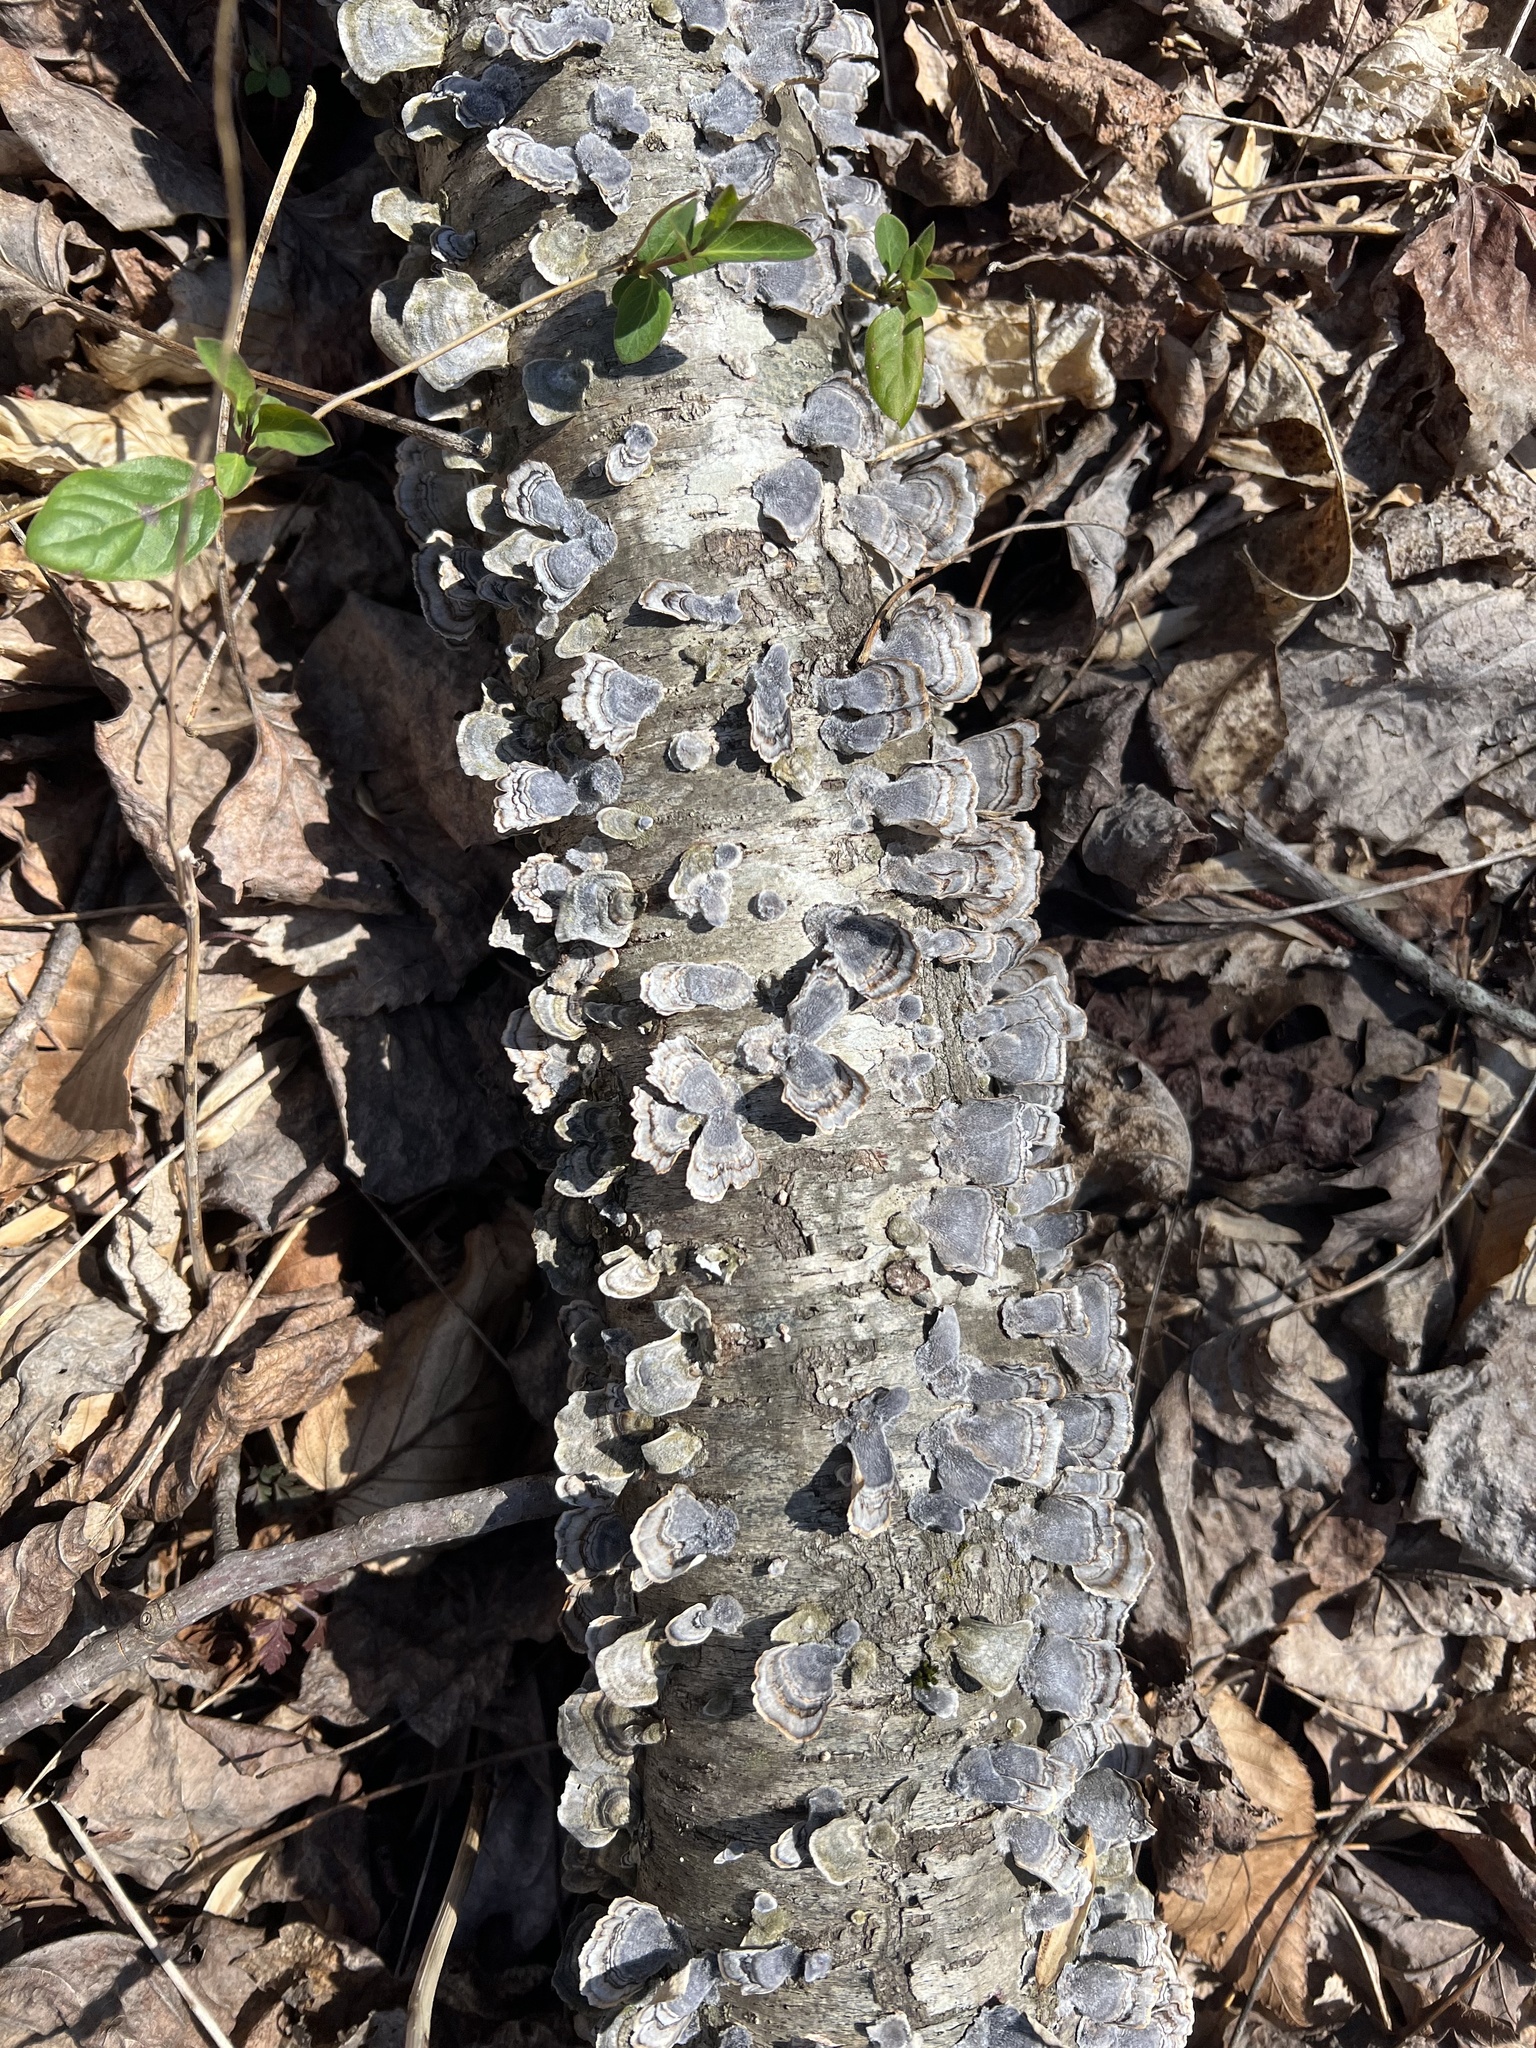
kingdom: Fungi
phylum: Basidiomycota
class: Agaricomycetes
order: Polyporales
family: Polyporaceae
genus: Trametes
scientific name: Trametes versicolor
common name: Turkeytail
